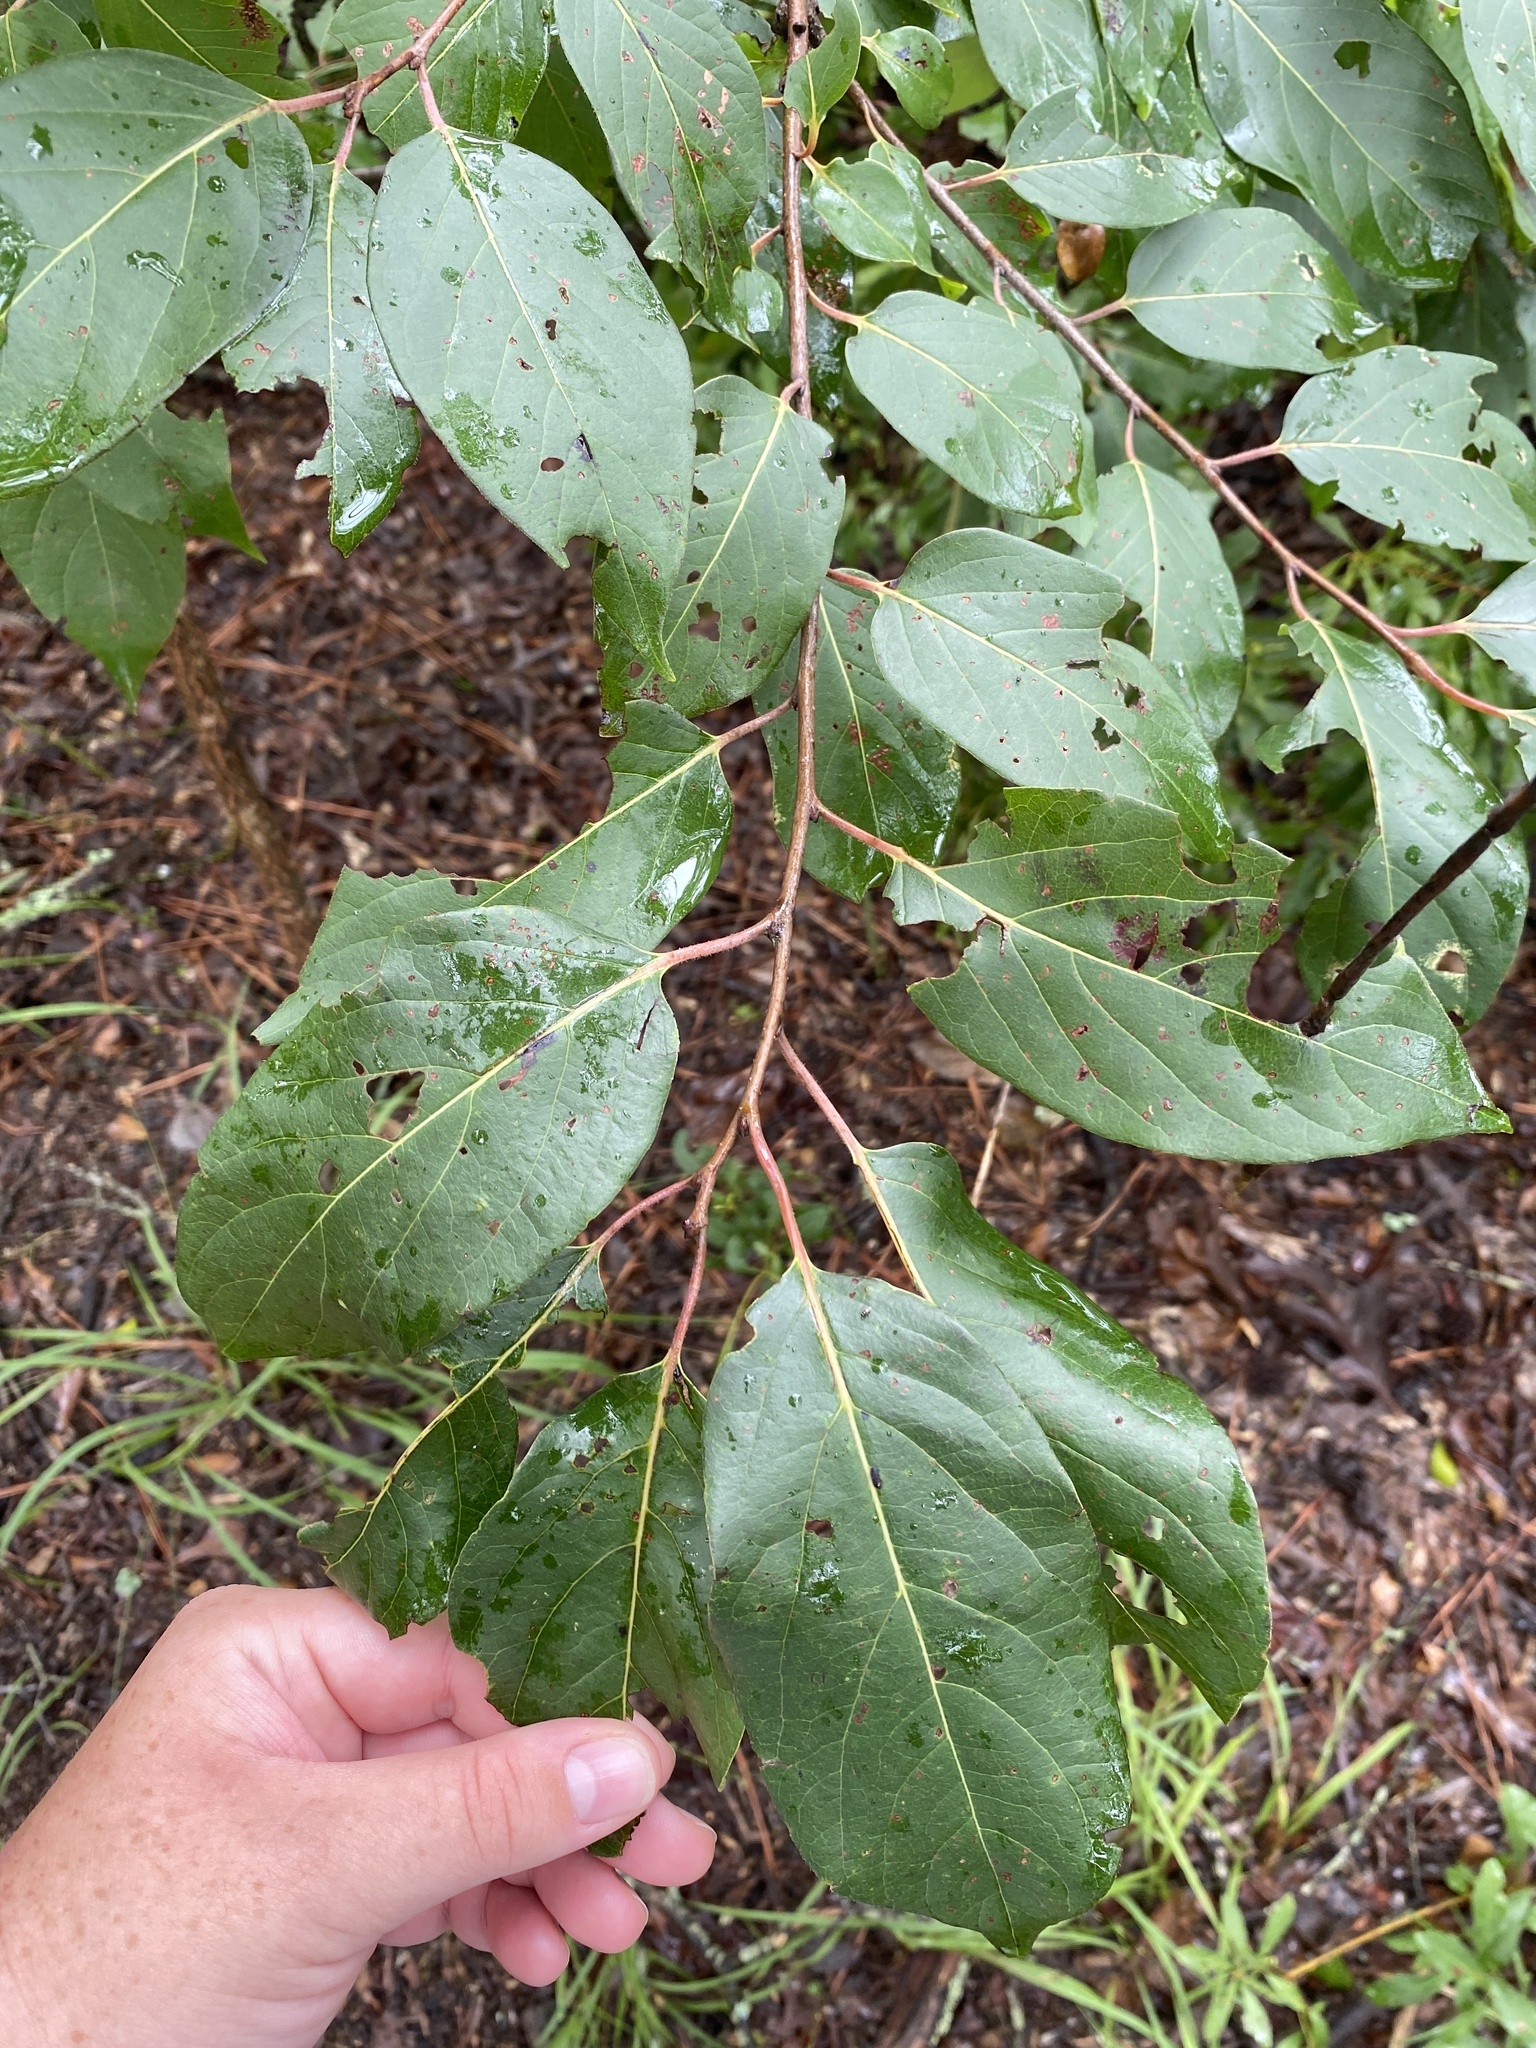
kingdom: Plantae
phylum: Tracheophyta
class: Magnoliopsida
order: Ericales
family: Ebenaceae
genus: Diospyros
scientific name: Diospyros virginiana
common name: Persimmon
